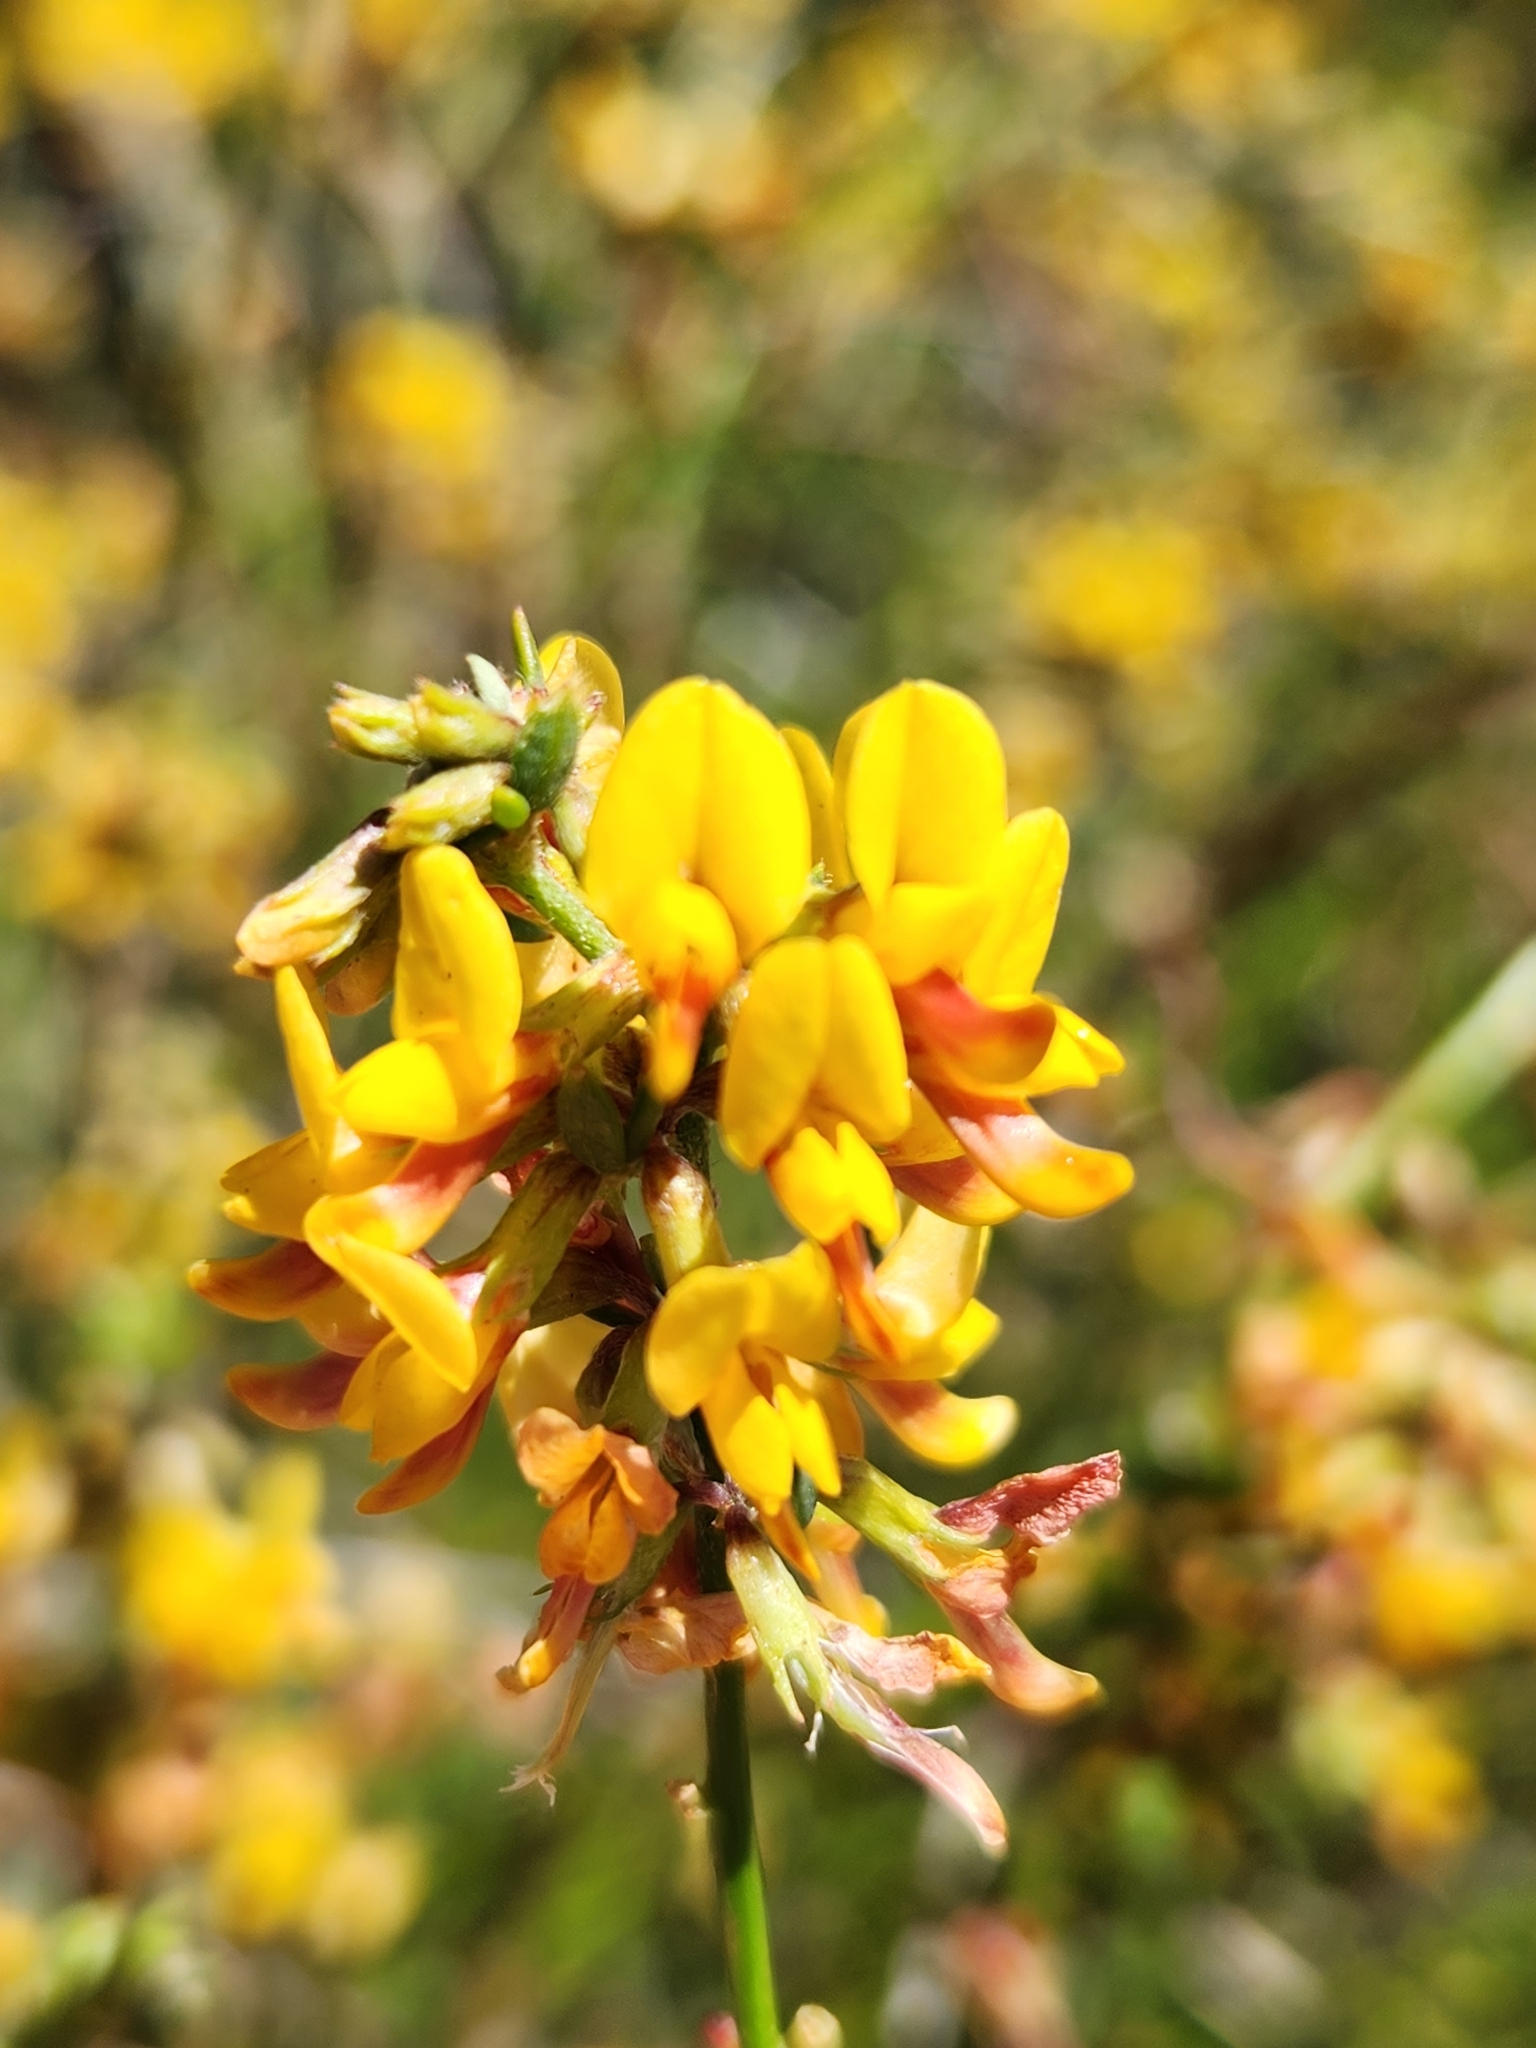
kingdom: Plantae
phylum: Tracheophyta
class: Magnoliopsida
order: Fabales
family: Fabaceae
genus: Acmispon
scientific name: Acmispon glaber
